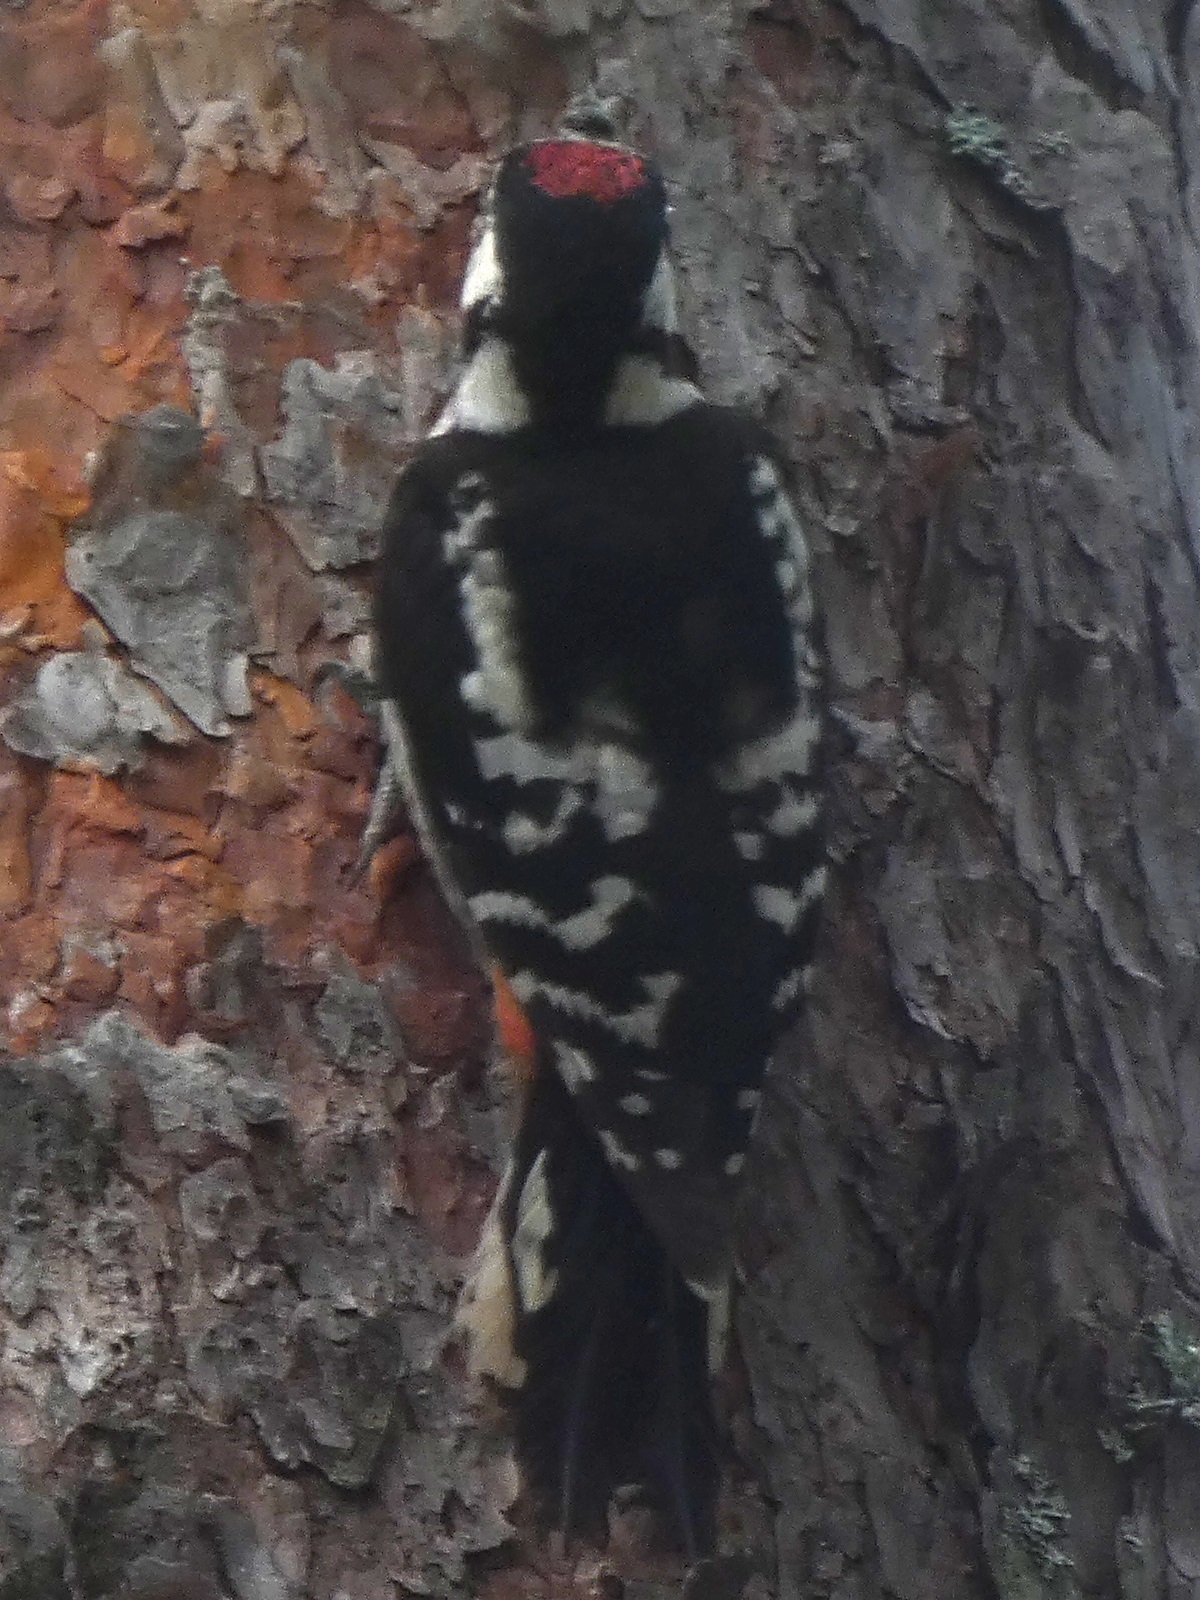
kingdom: Animalia
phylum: Chordata
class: Aves
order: Piciformes
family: Picidae
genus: Dendrocopos
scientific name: Dendrocopos major
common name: Great spotted woodpecker
